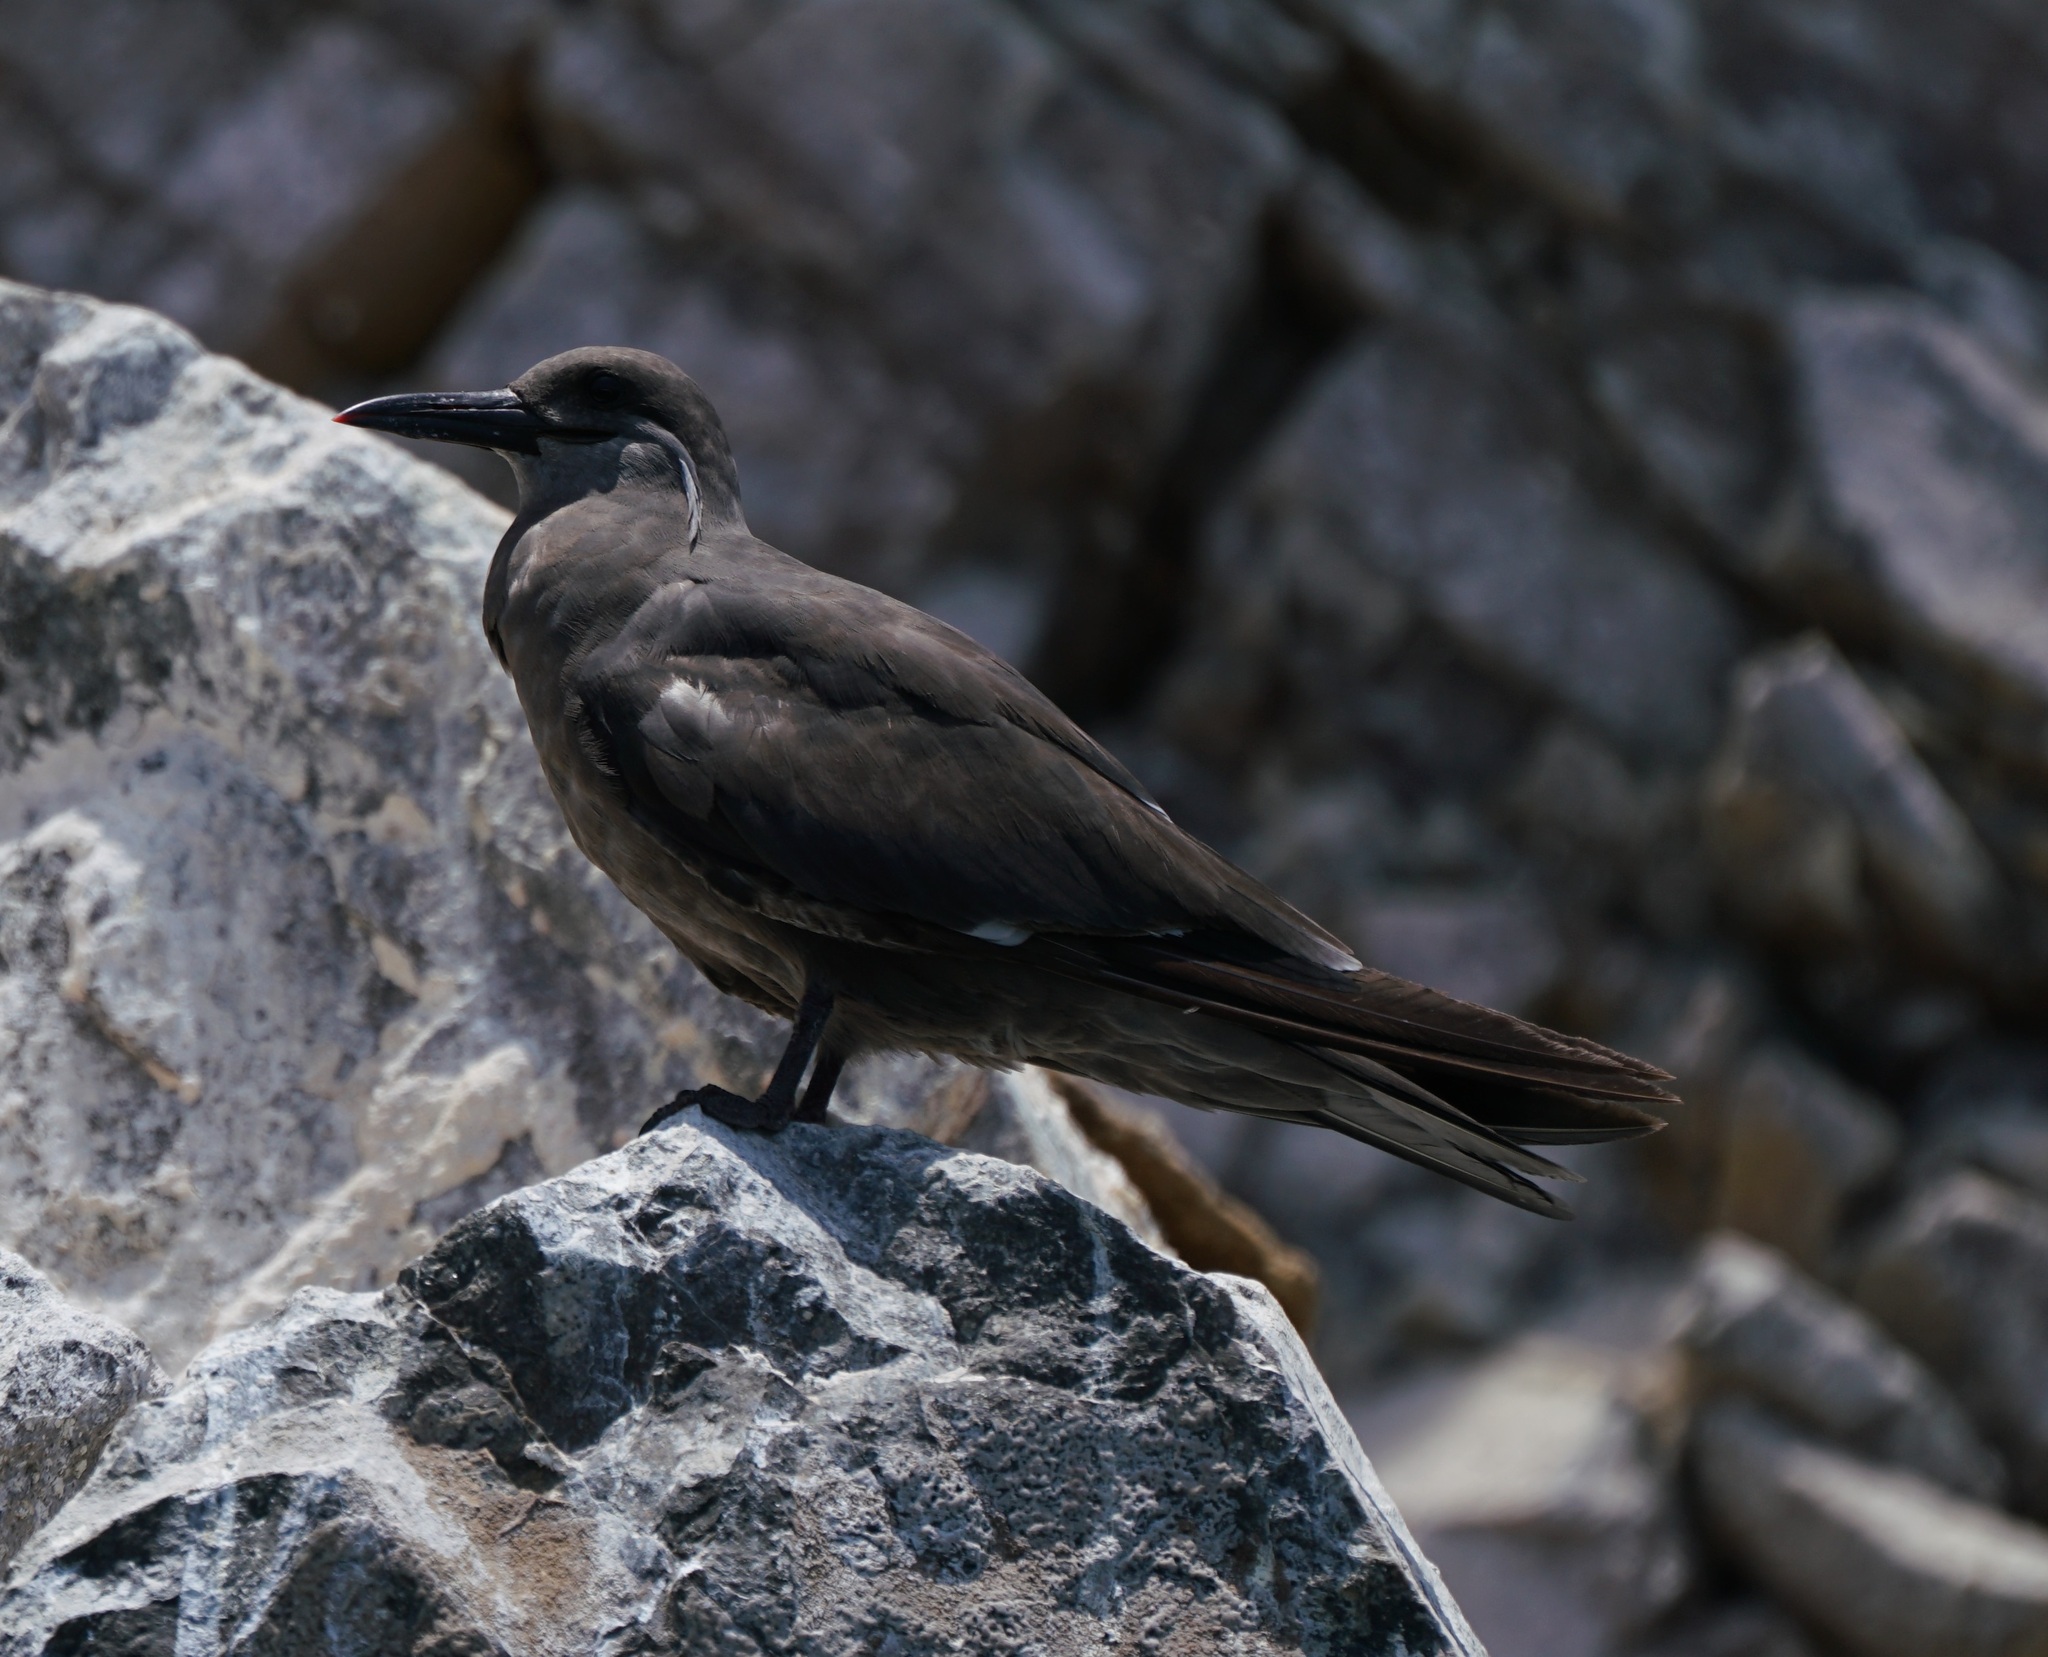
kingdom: Animalia
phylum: Chordata
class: Aves
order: Charadriiformes
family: Laridae
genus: Larosterna
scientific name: Larosterna inca
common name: Inca tern
